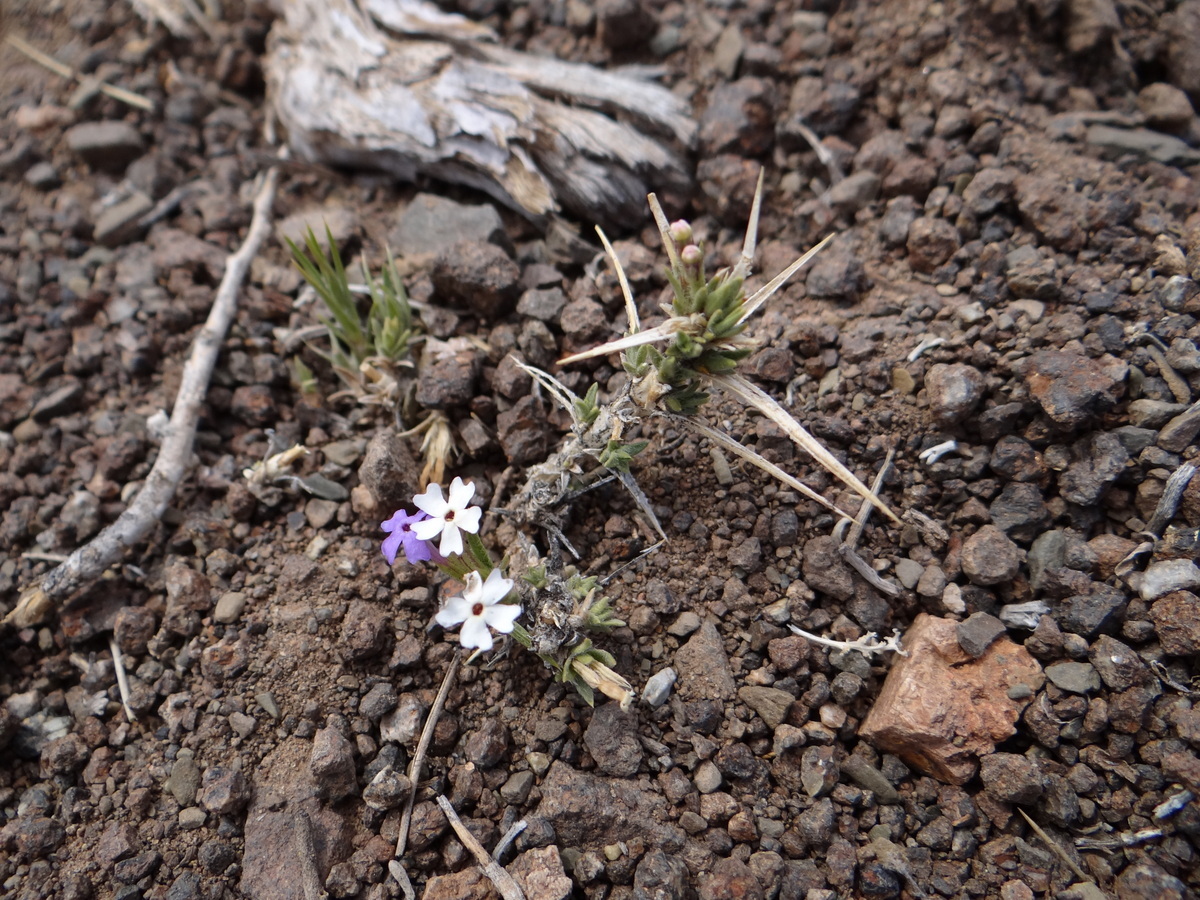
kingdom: Plantae
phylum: Tracheophyta
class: Magnoliopsida
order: Lamiales
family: Verbenaceae
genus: Junellia
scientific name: Junellia juniperina
